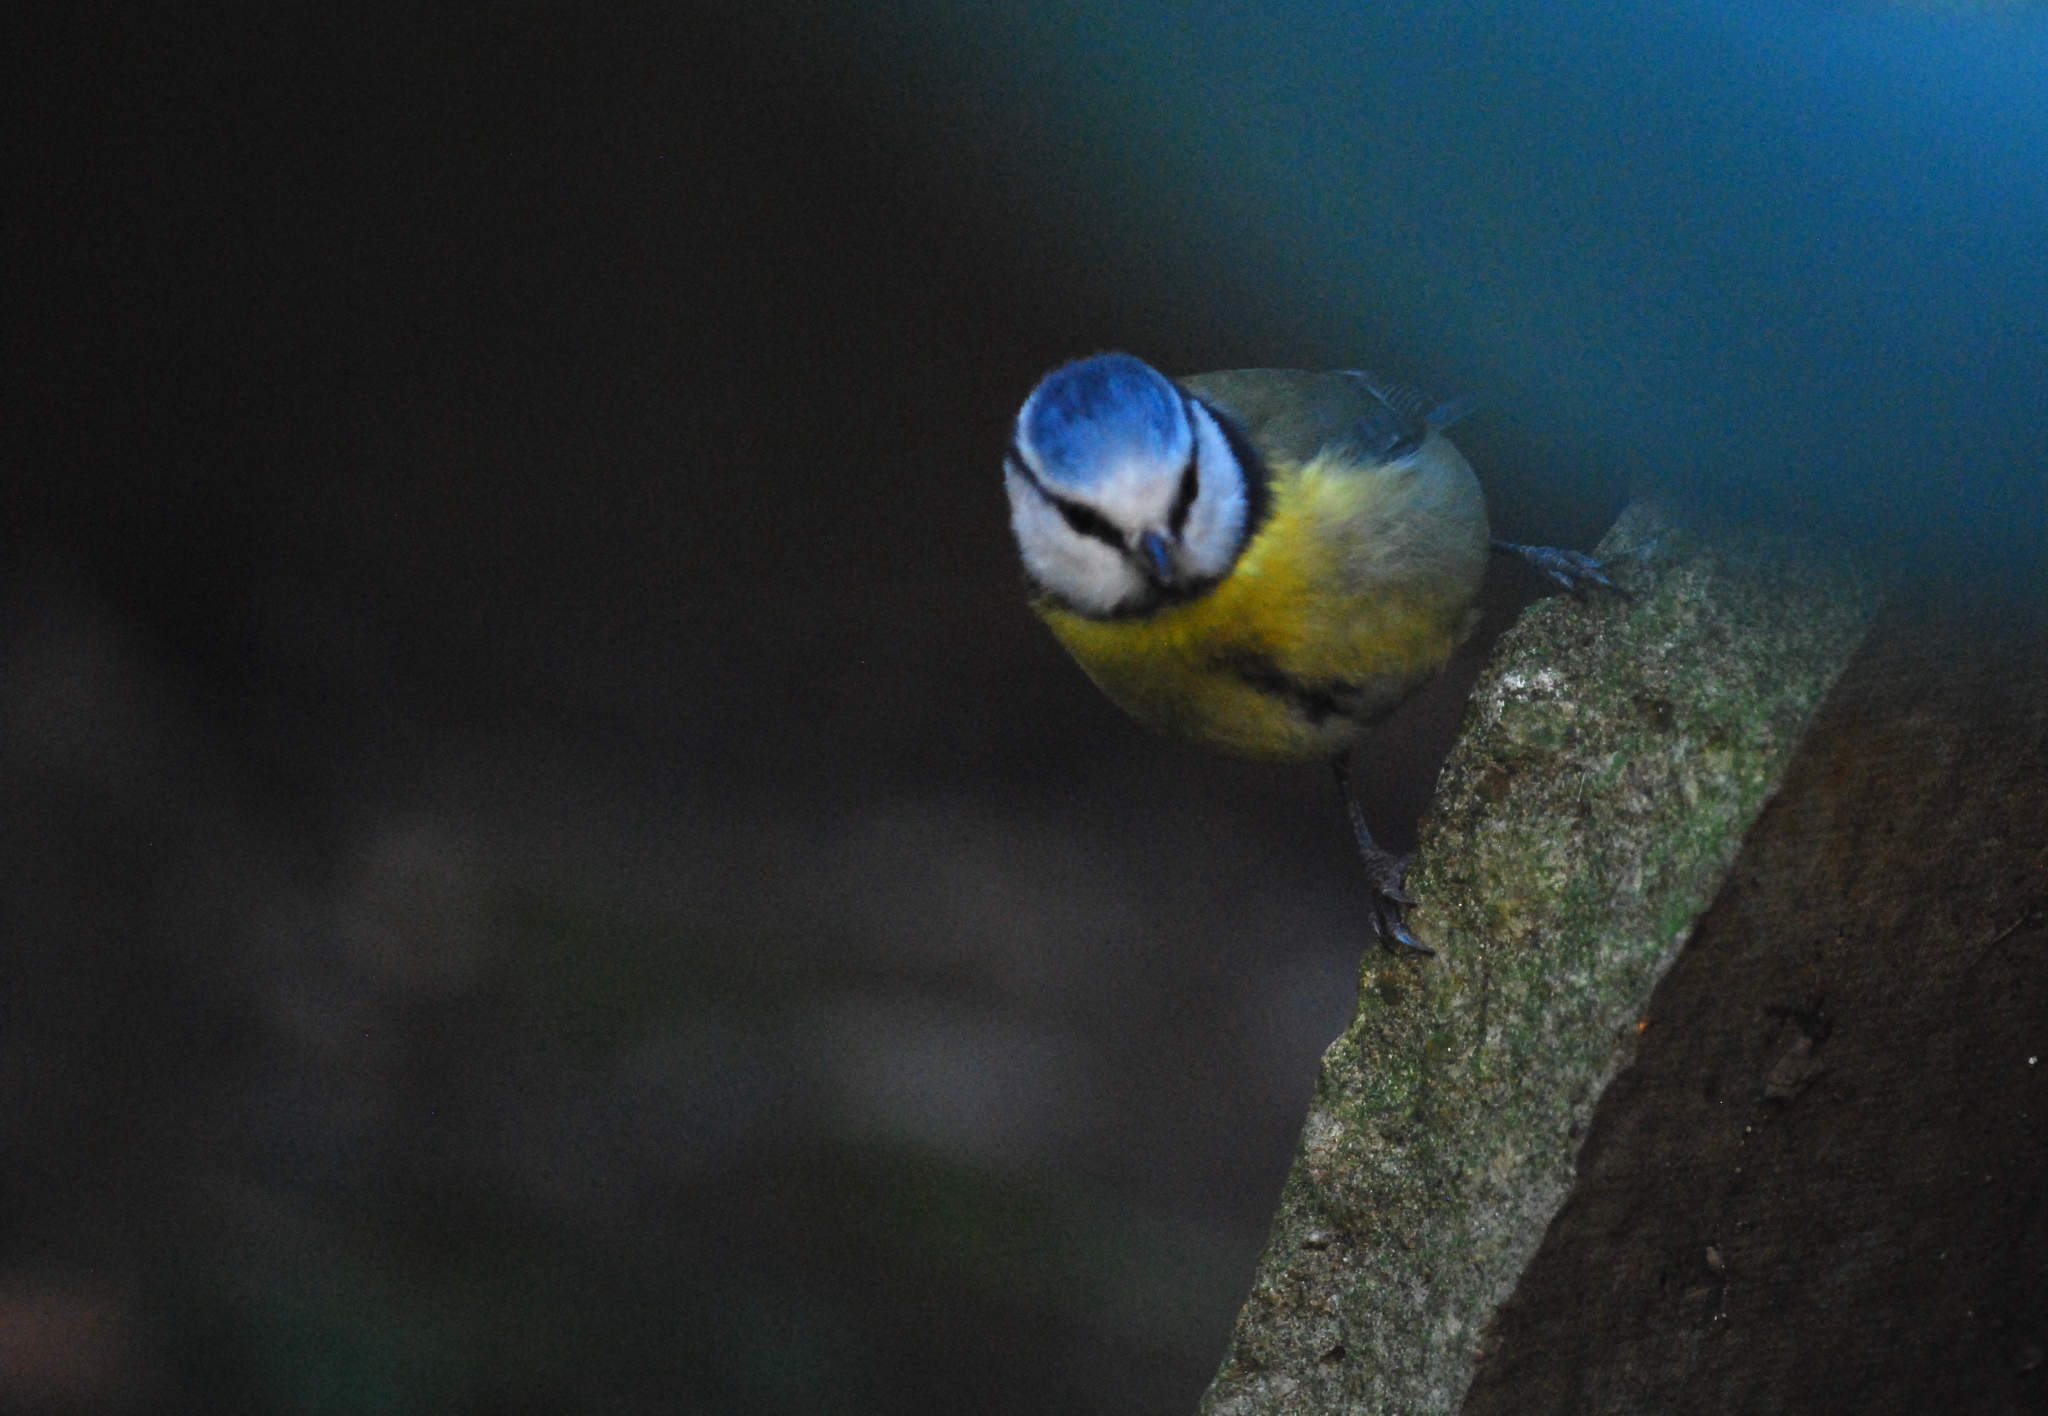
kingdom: Animalia
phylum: Chordata
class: Aves
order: Passeriformes
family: Paridae
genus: Cyanistes
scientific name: Cyanistes caeruleus
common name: Eurasian blue tit
